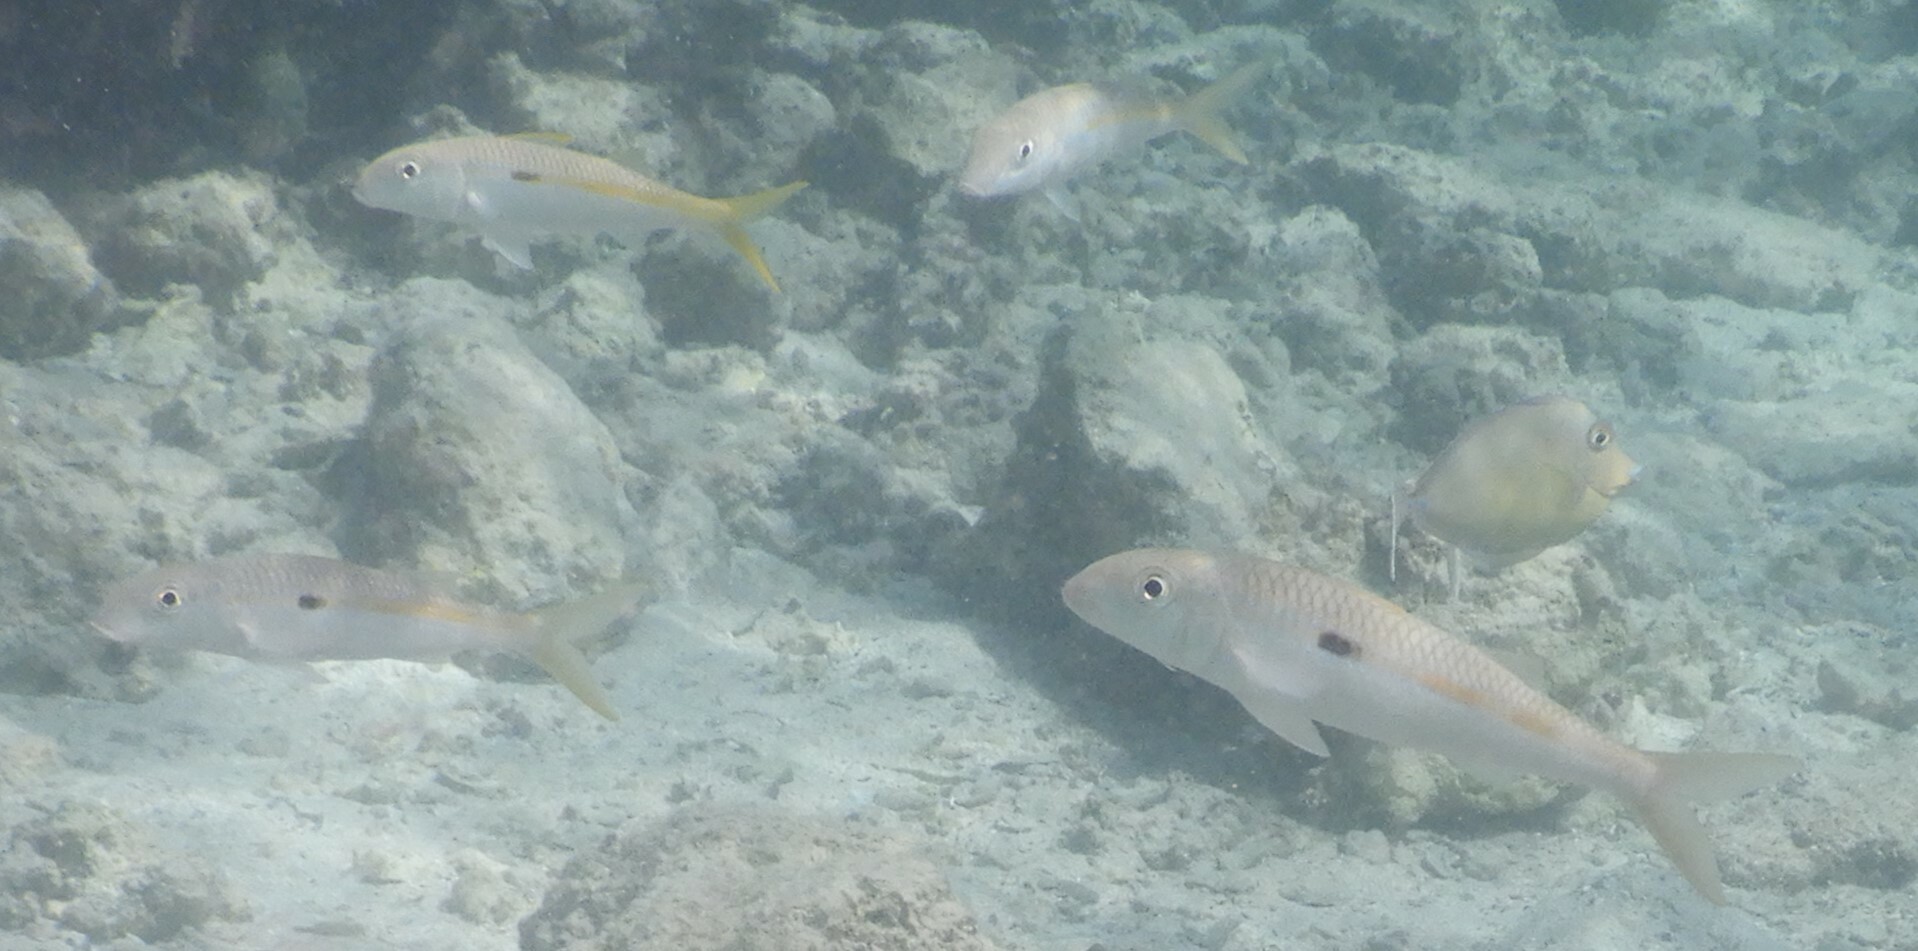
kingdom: Animalia
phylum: Chordata
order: Perciformes
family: Mullidae
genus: Mulloidichthys
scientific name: Mulloidichthys flavolineatus
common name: Yellowstripe goatfish
